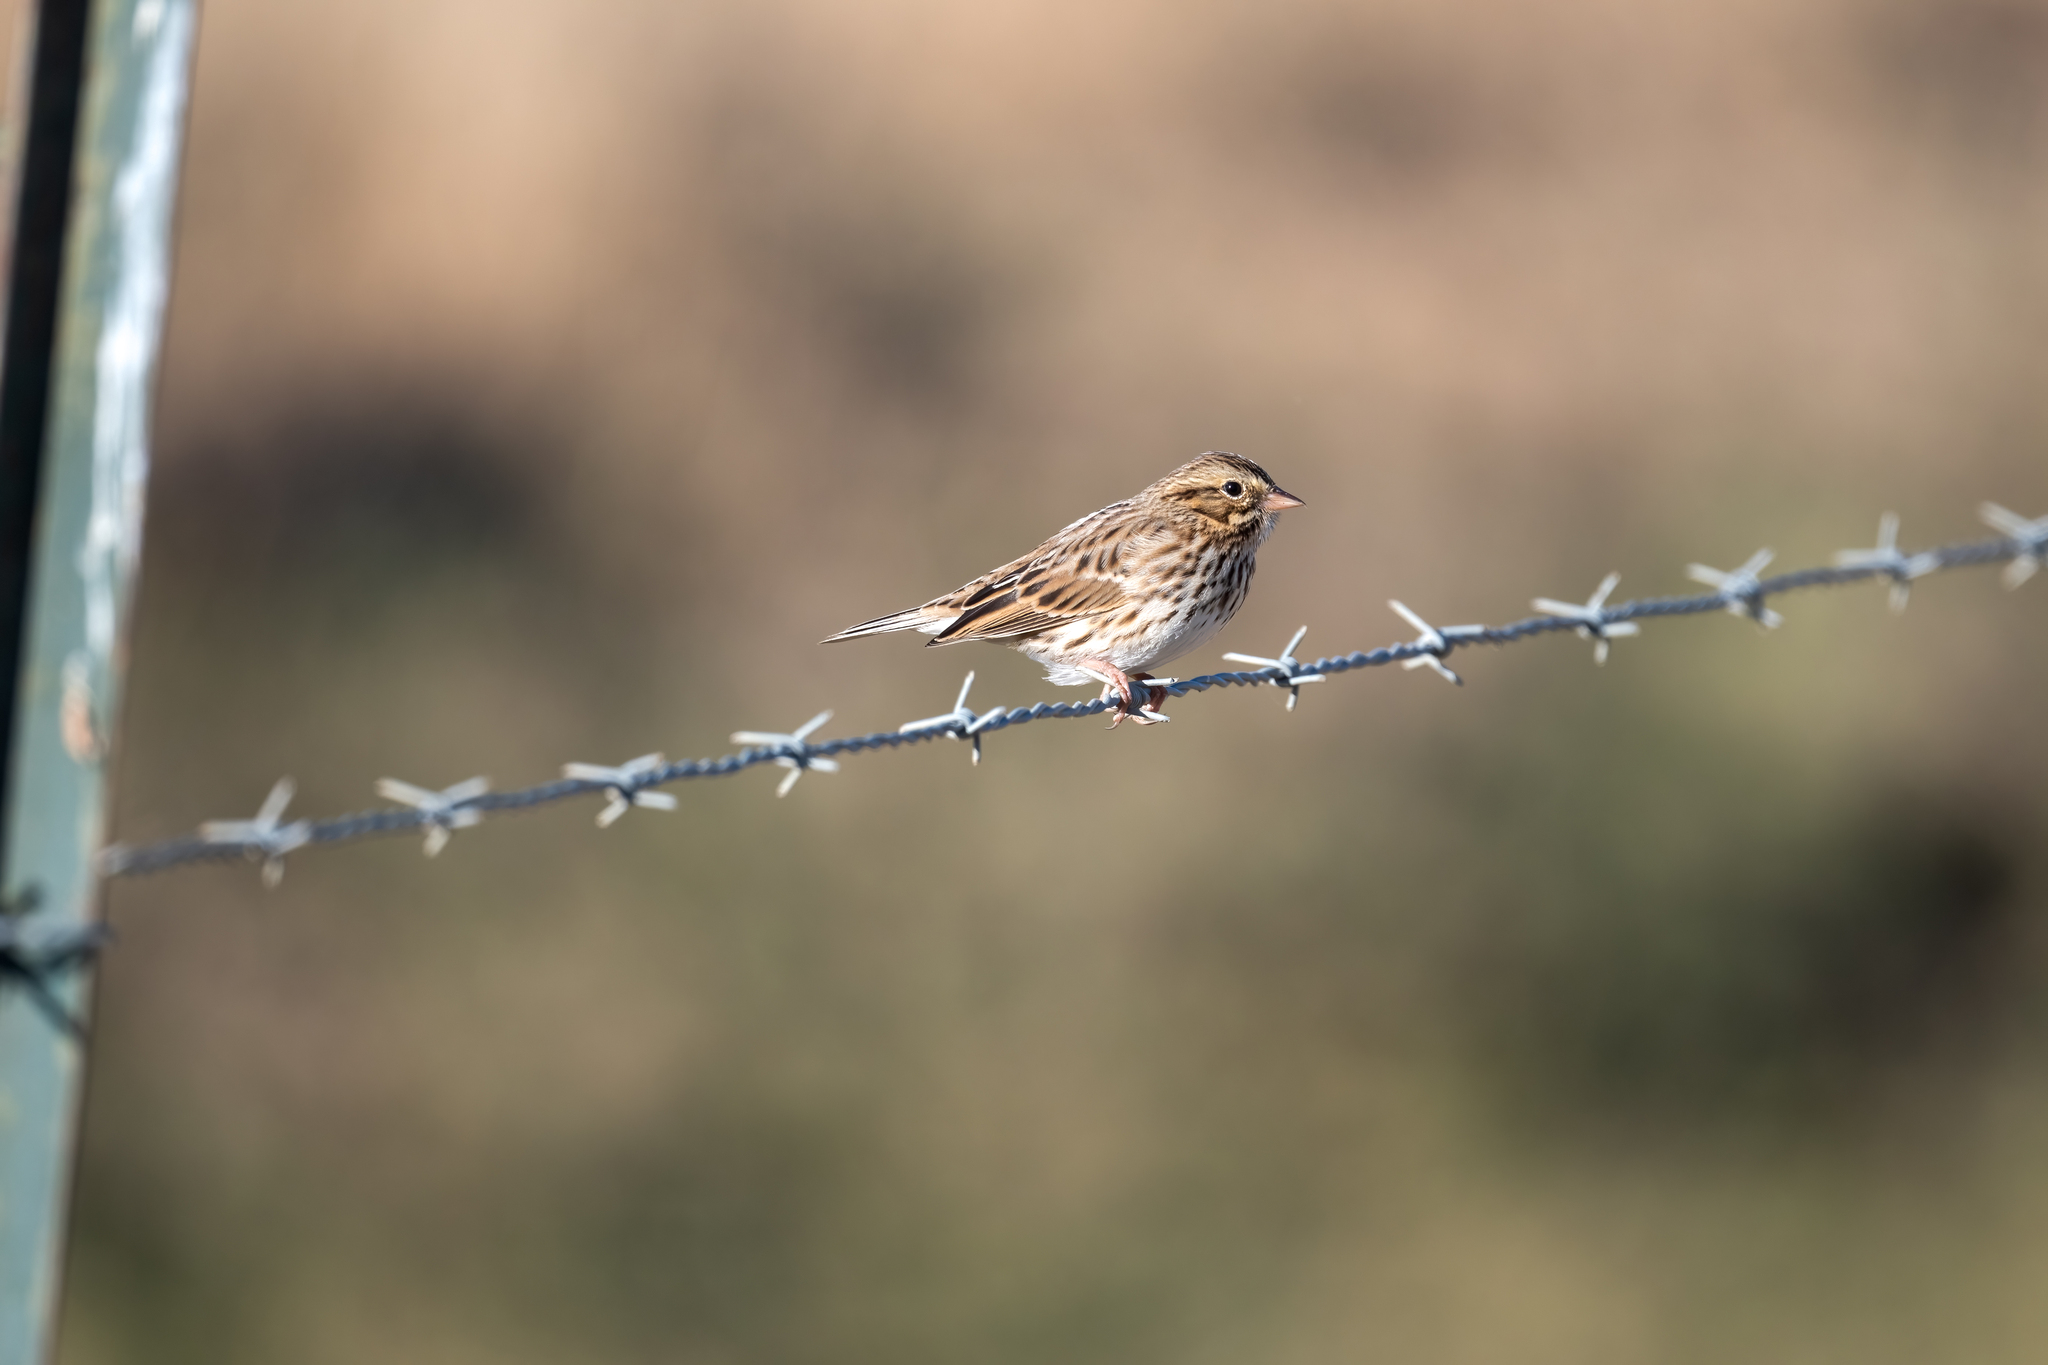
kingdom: Animalia
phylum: Chordata
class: Aves
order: Passeriformes
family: Passerellidae
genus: Passerculus
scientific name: Passerculus sandwichensis
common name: Savannah sparrow
